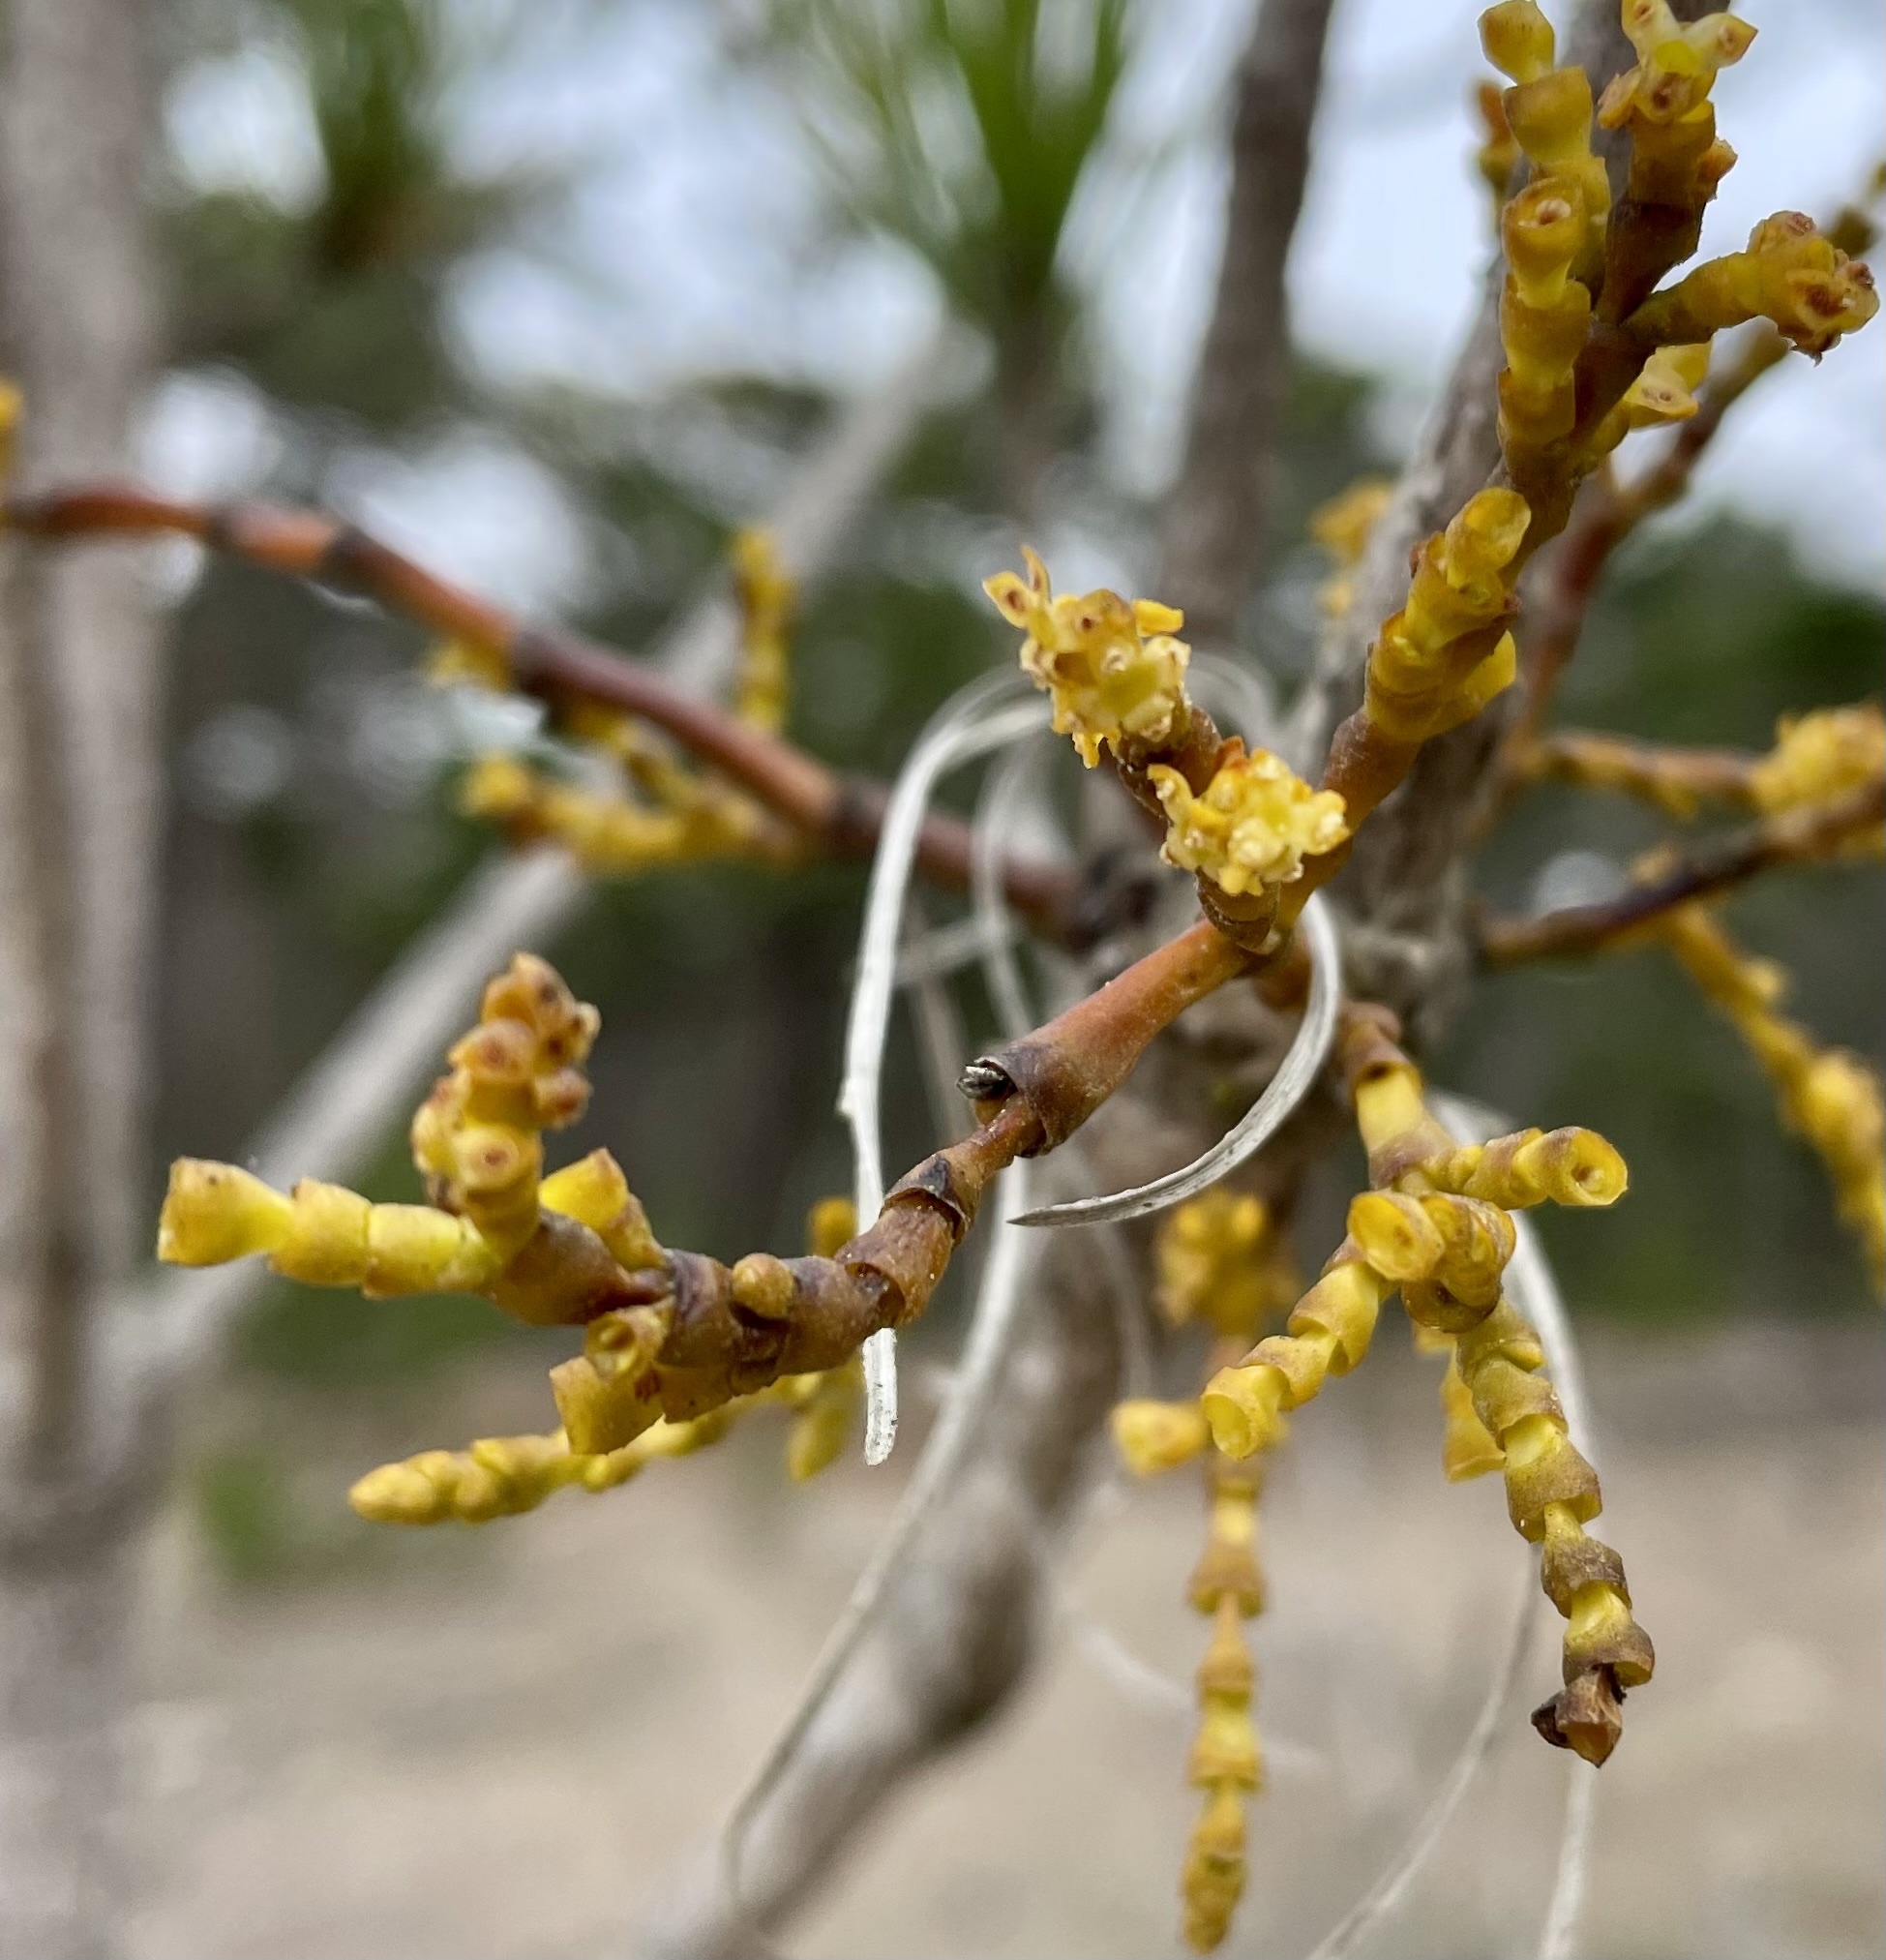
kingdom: Plantae
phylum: Tracheophyta
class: Magnoliopsida
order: Santalales
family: Viscaceae
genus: Arceuthobium
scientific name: Arceuthobium campylopodum
